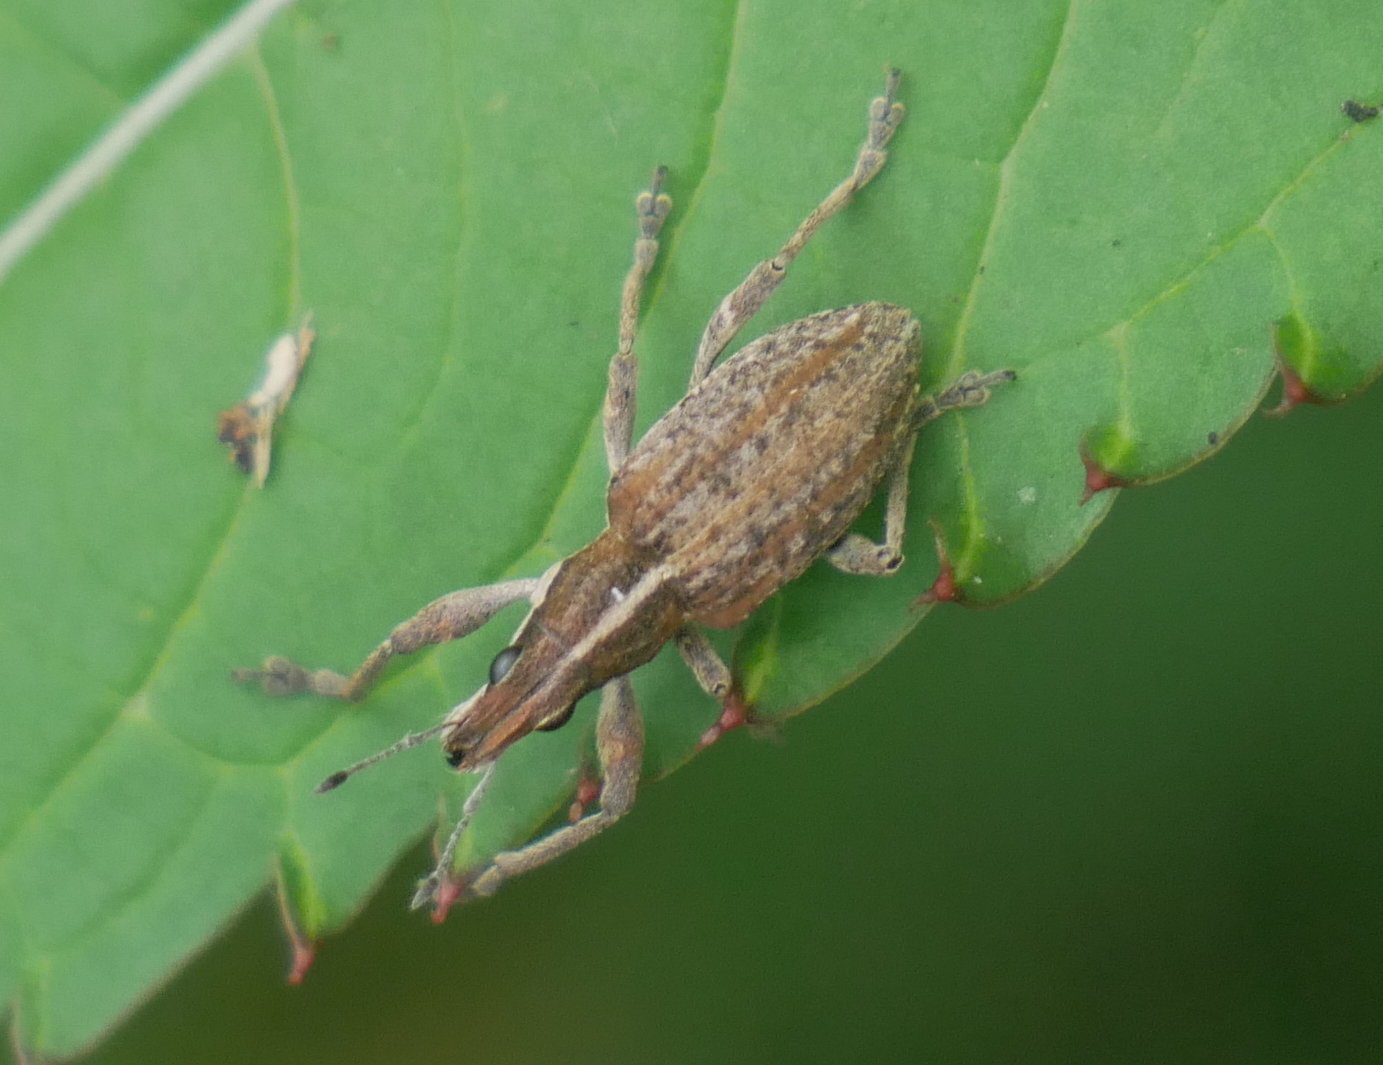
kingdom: Animalia
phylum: Arthropoda
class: Insecta
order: Coleoptera
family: Curculionidae
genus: Charagmus
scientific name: Charagmus gressorius
